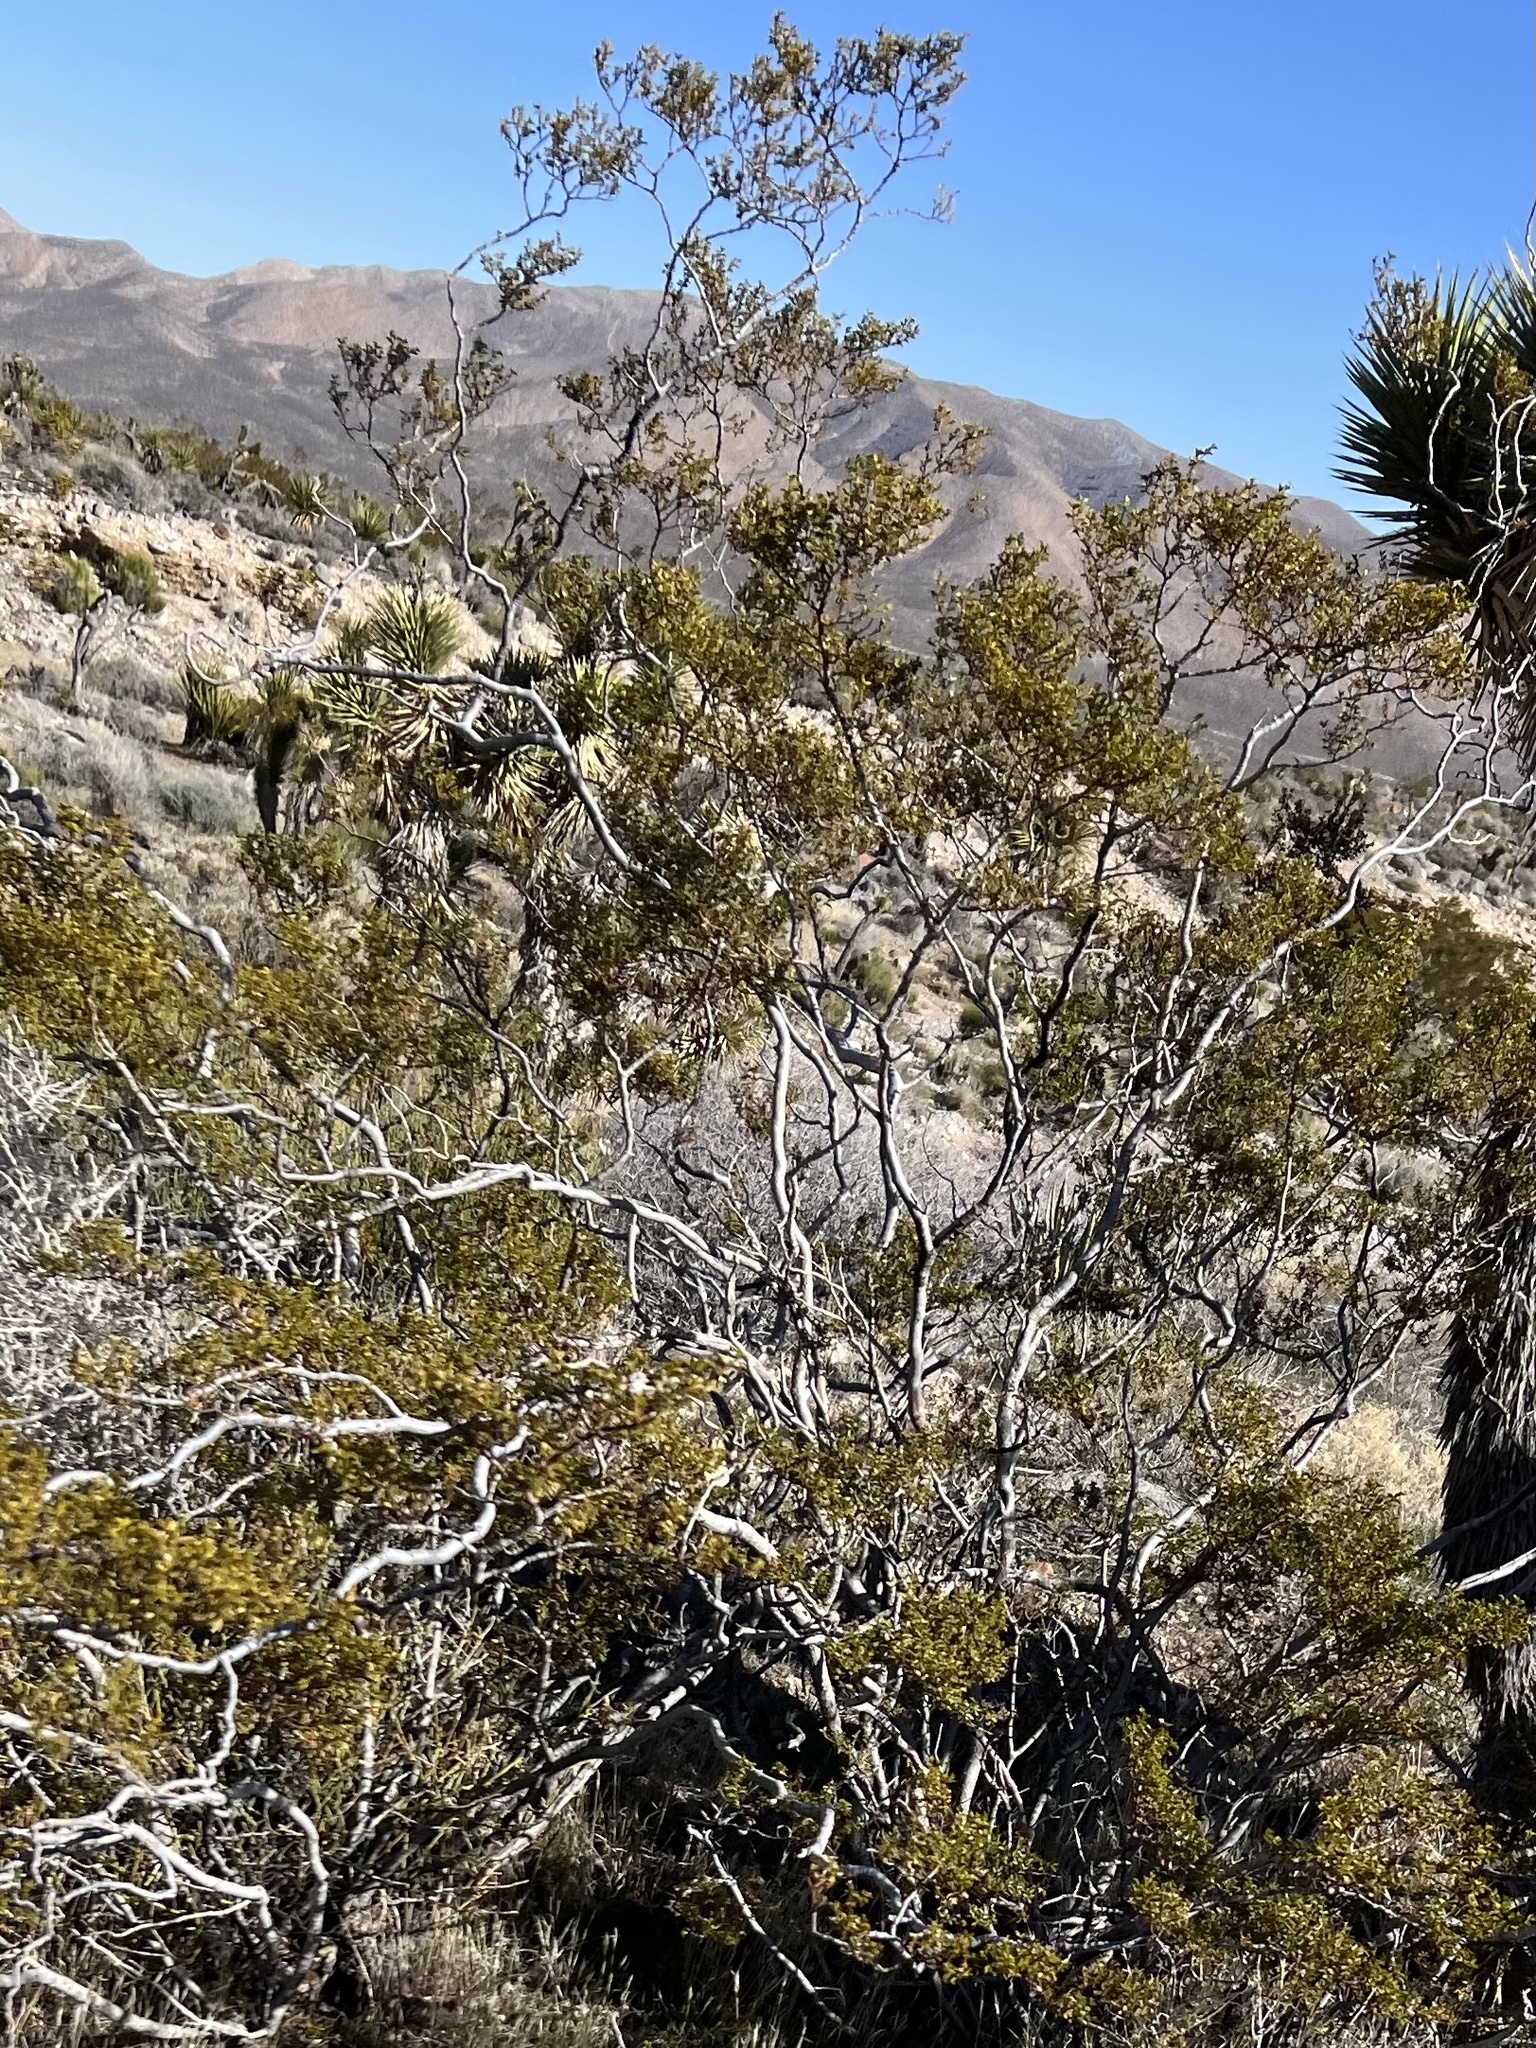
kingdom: Plantae
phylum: Tracheophyta
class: Magnoliopsida
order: Zygophyllales
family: Zygophyllaceae
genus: Larrea
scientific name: Larrea tridentata
